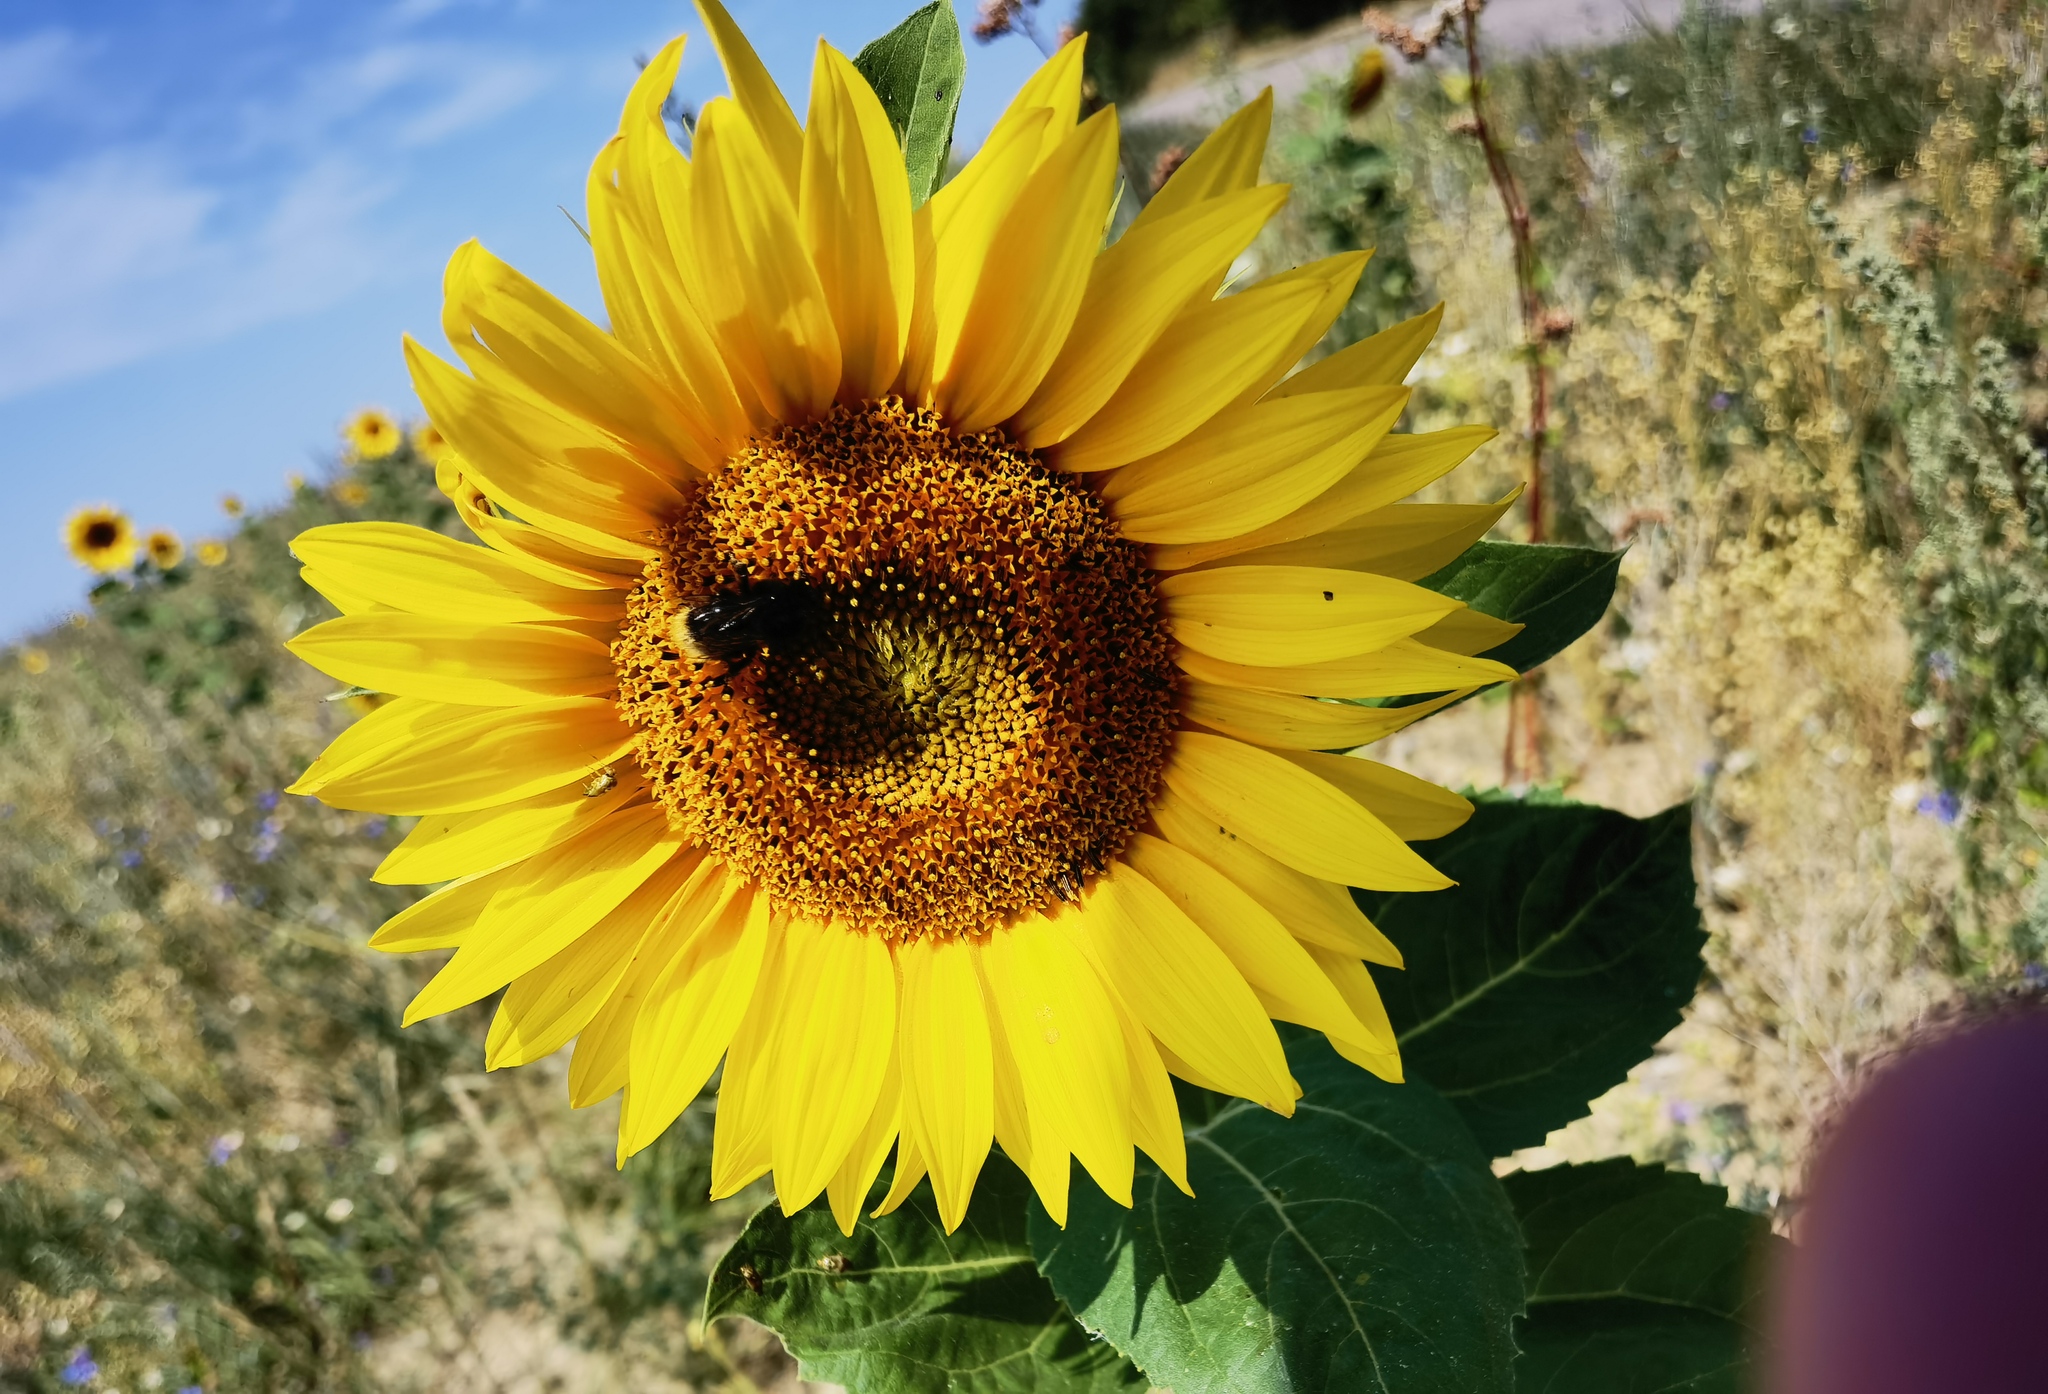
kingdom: Plantae
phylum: Tracheophyta
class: Magnoliopsida
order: Asterales
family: Asteraceae
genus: Helianthus
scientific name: Helianthus annuus
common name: Sunflower
